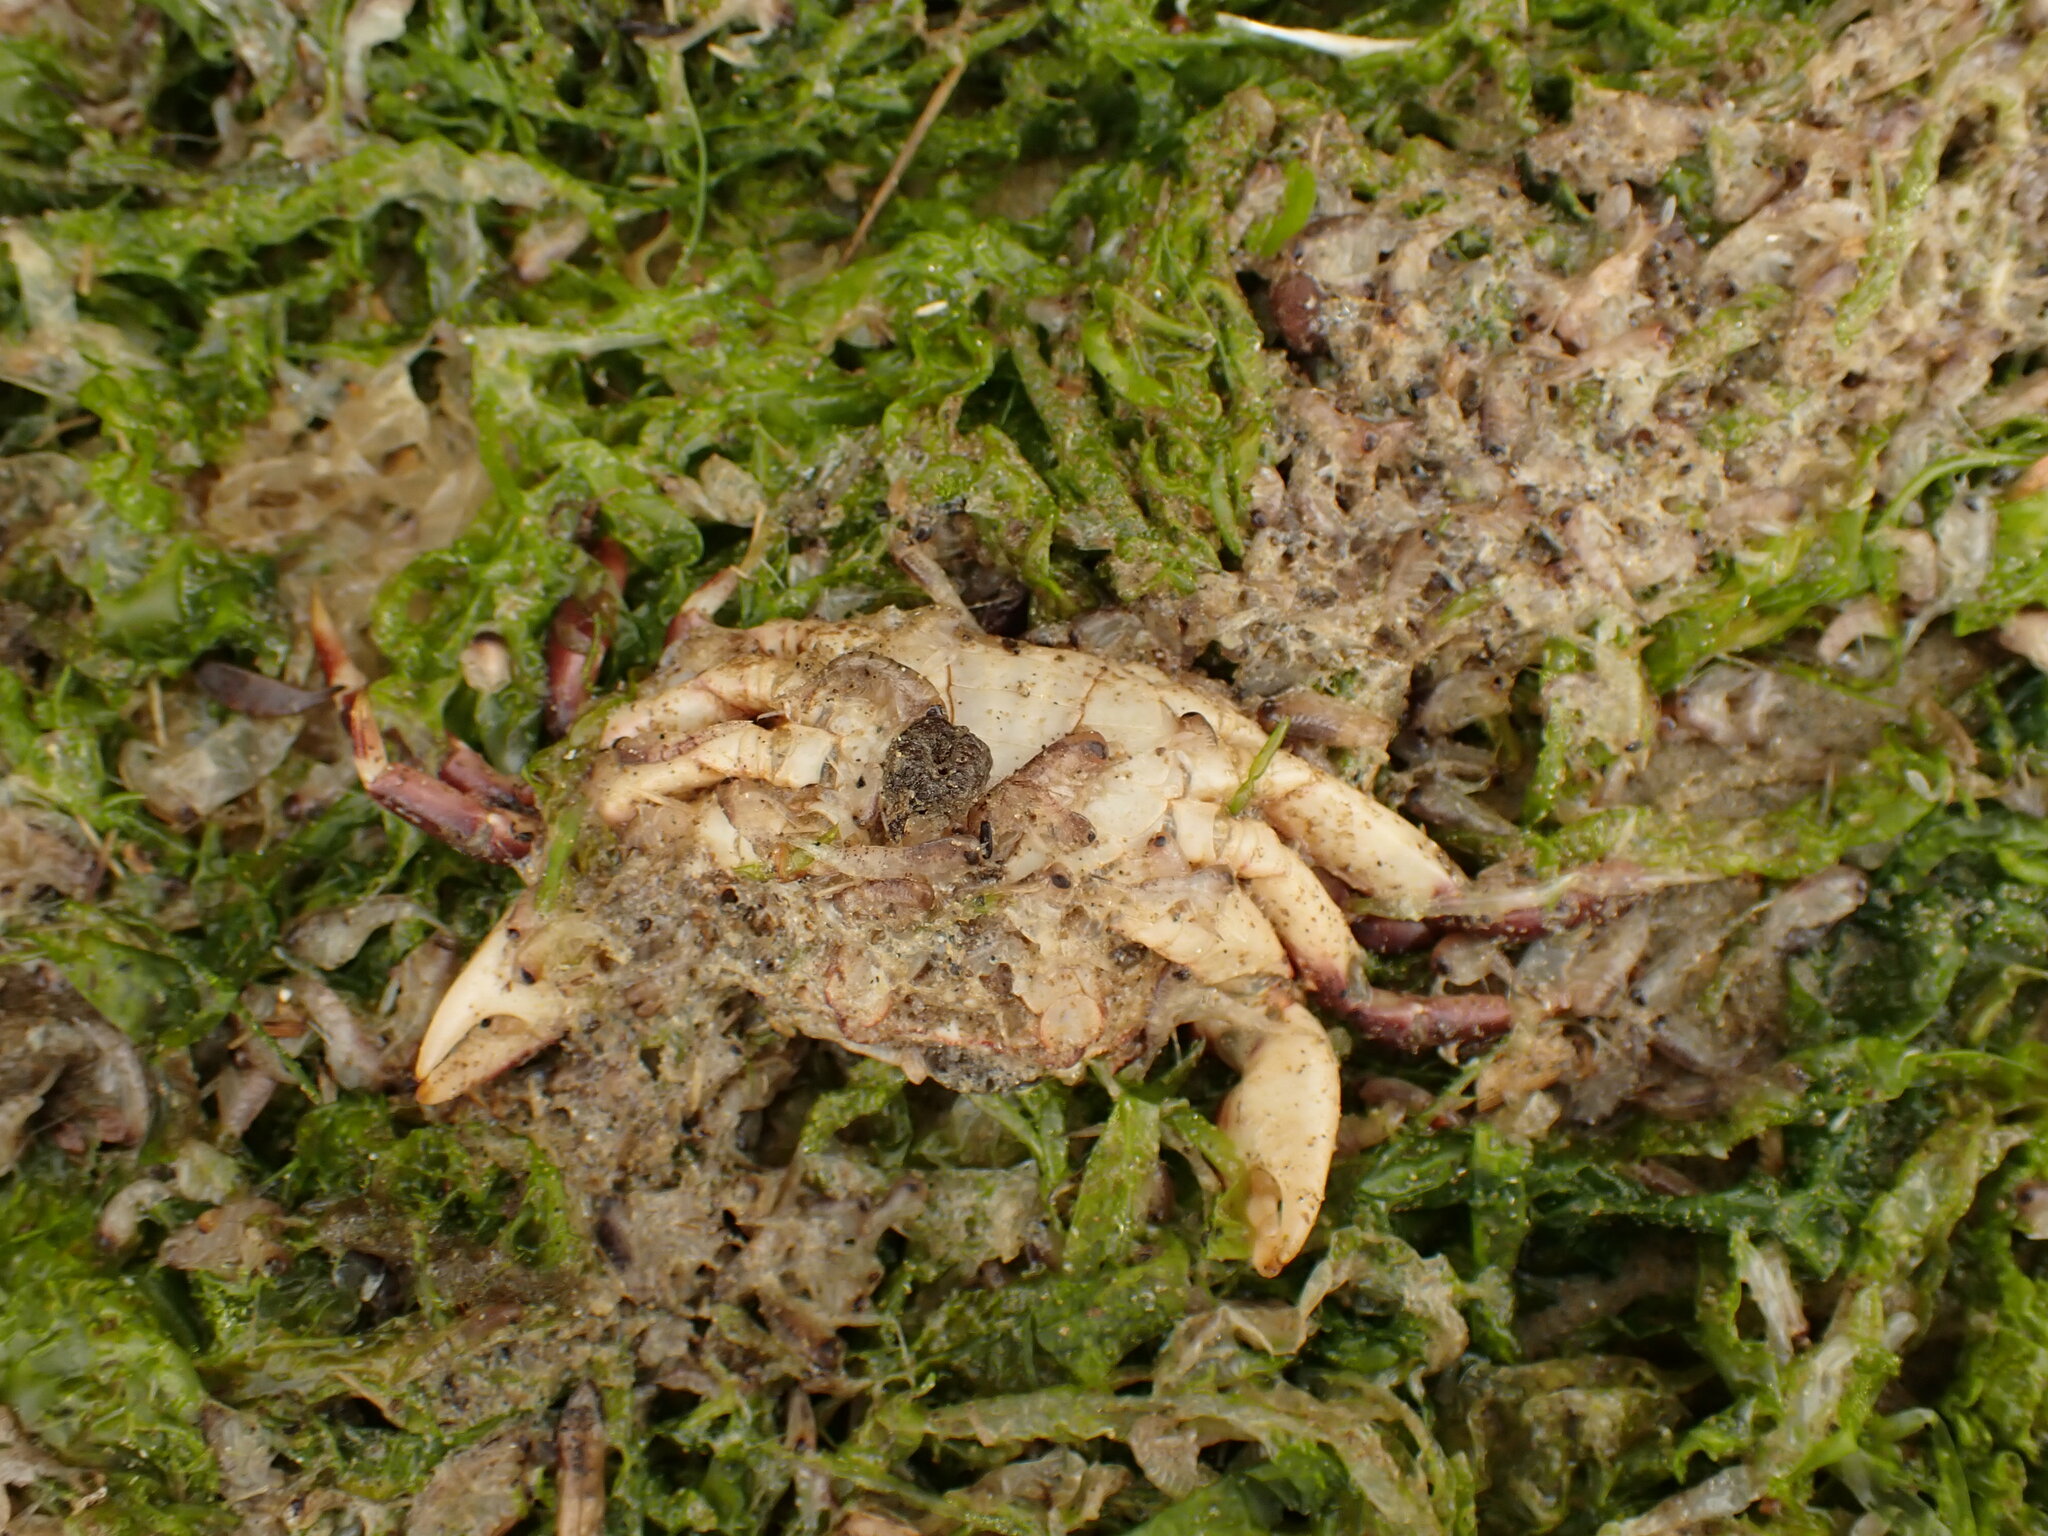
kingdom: Animalia
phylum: Arthropoda
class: Malacostraca
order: Decapoda
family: Varunidae
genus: Hemigrapsus
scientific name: Hemigrapsus sexdentatus
